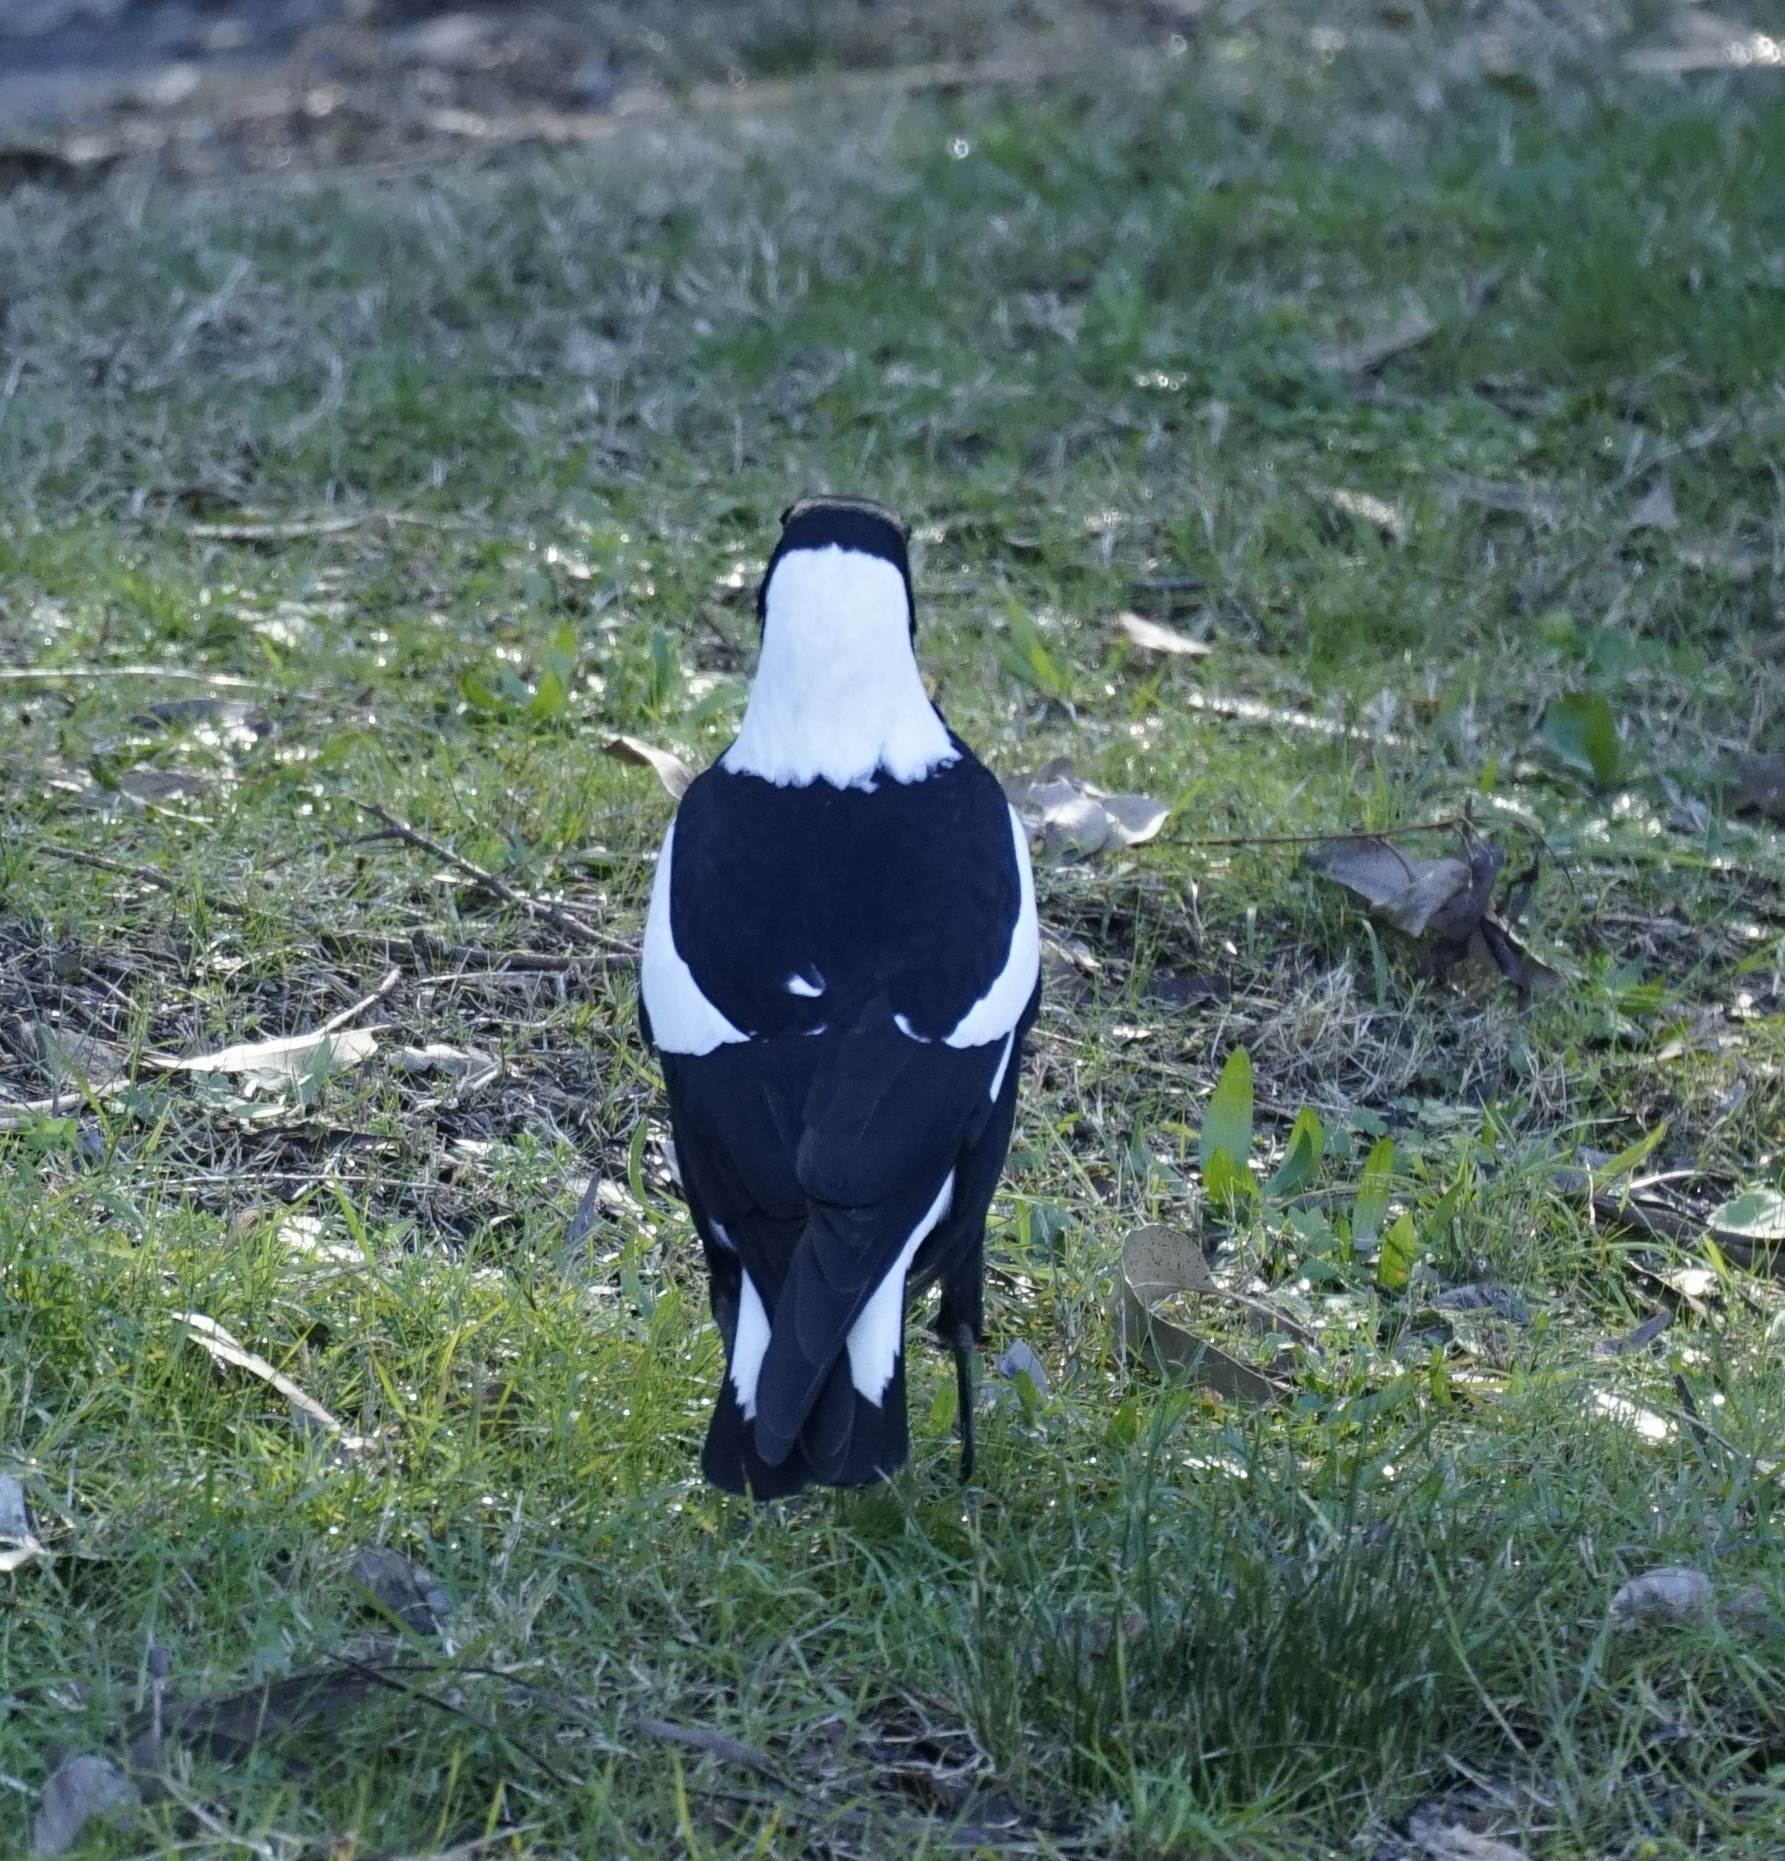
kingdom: Animalia
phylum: Chordata
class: Aves
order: Passeriformes
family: Cracticidae
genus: Gymnorhina
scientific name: Gymnorhina tibicen
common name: Australian magpie
